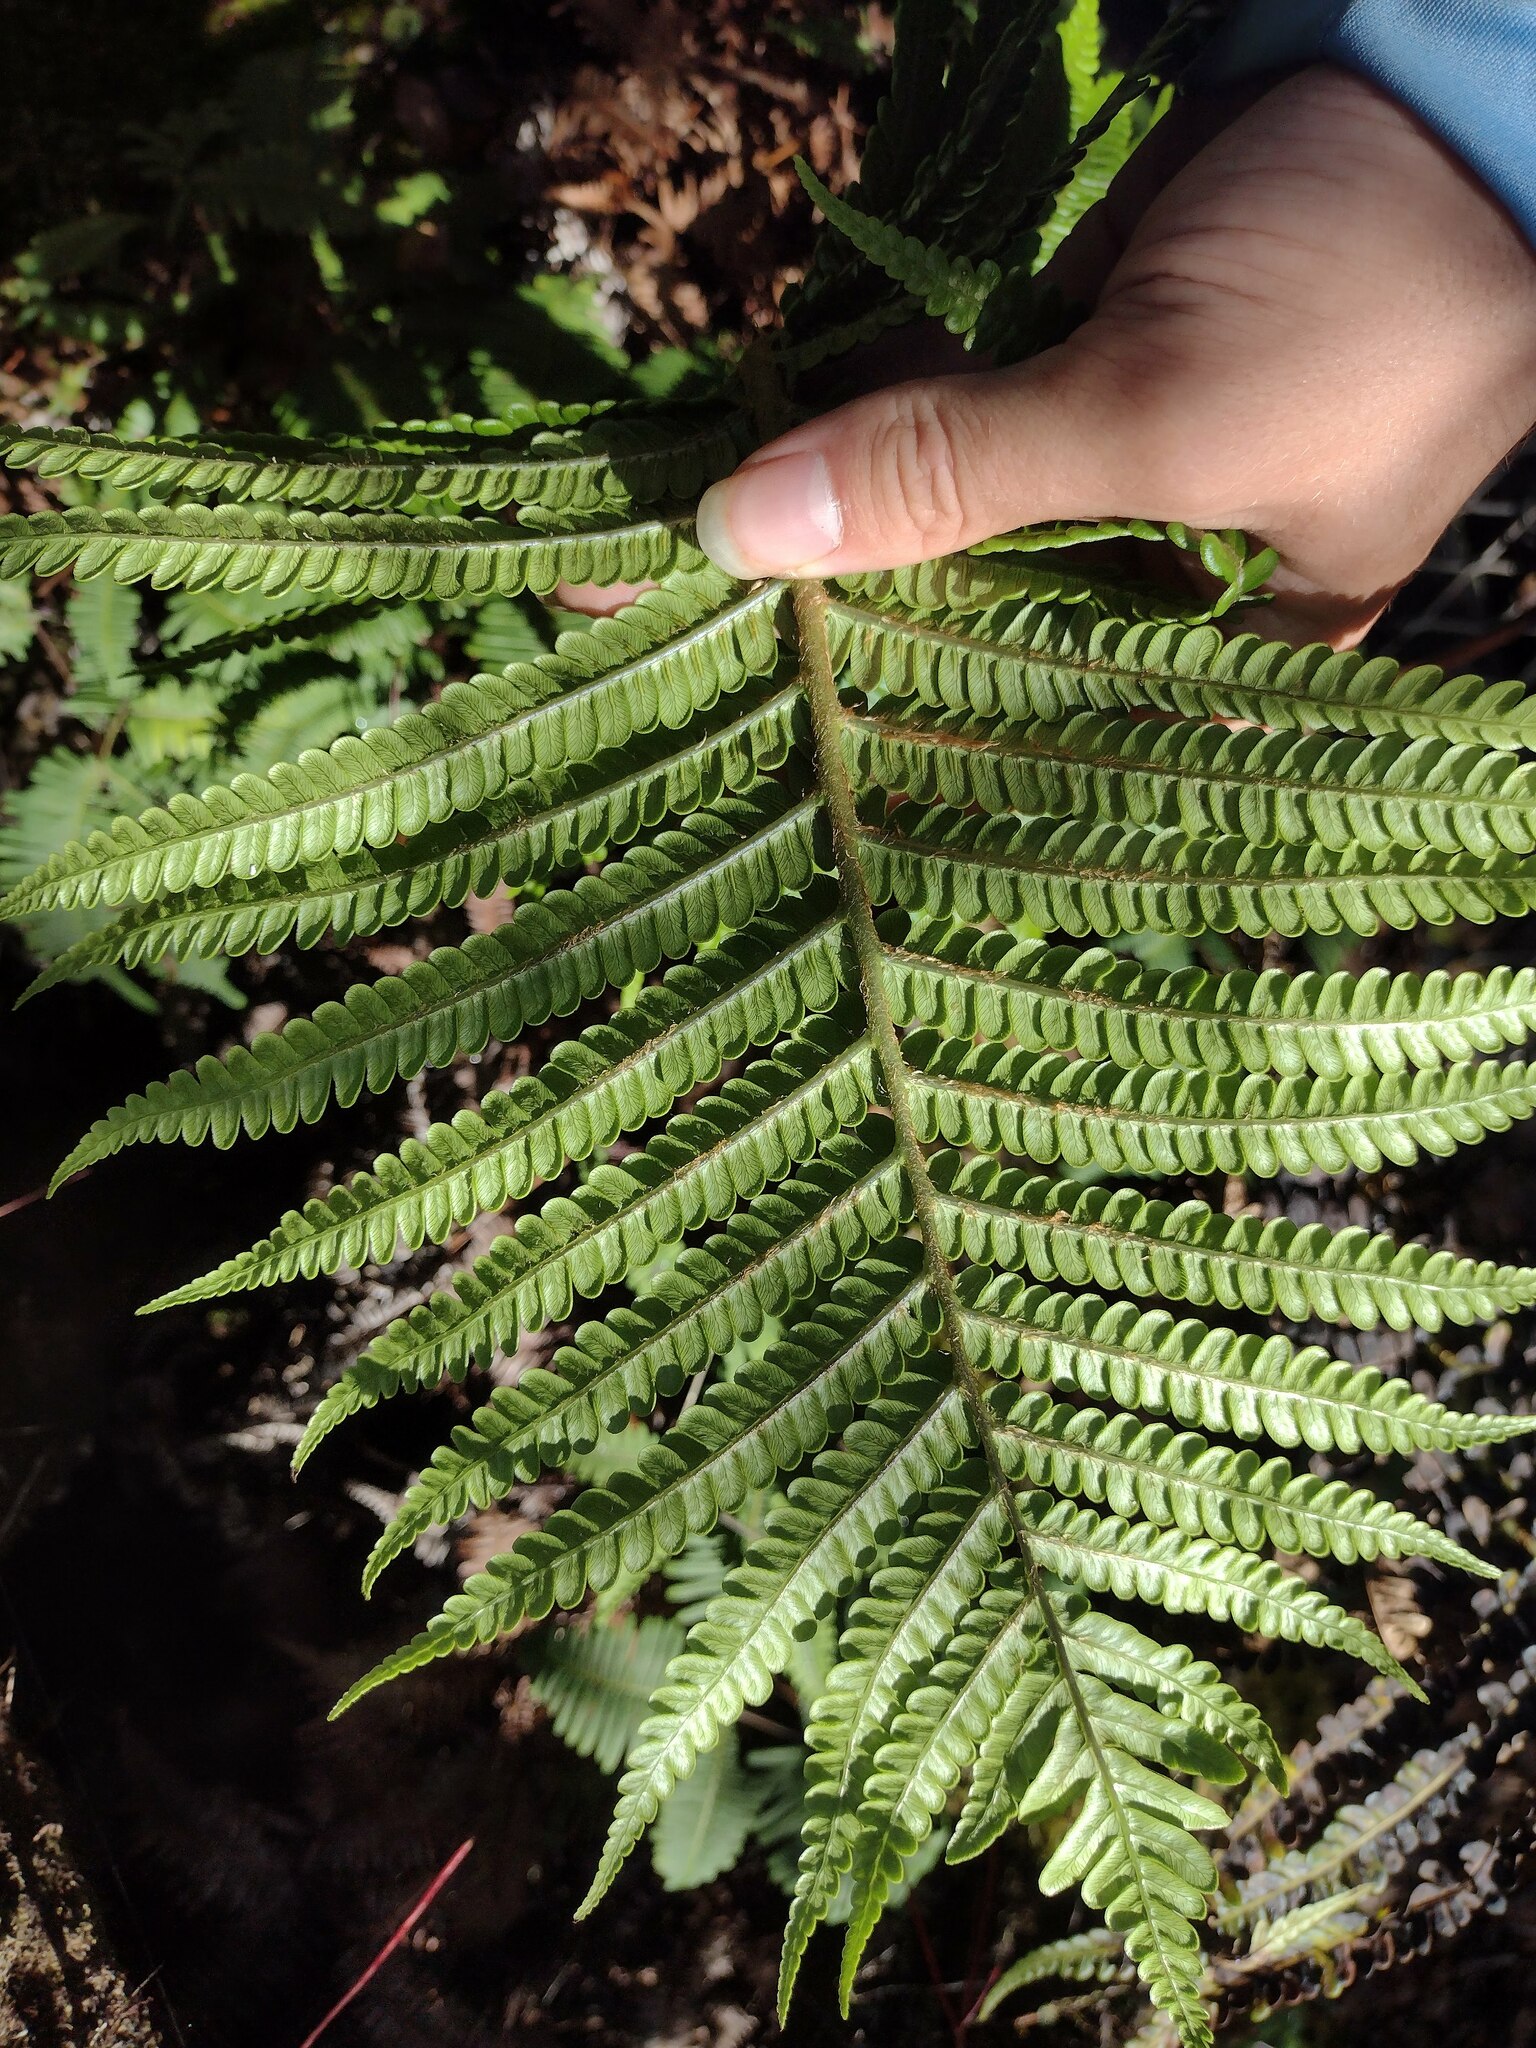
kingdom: Plantae
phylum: Tracheophyta
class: Polypodiopsida
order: Polypodiales
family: Blechnaceae
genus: Sadleria
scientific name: Sadleria pallida
